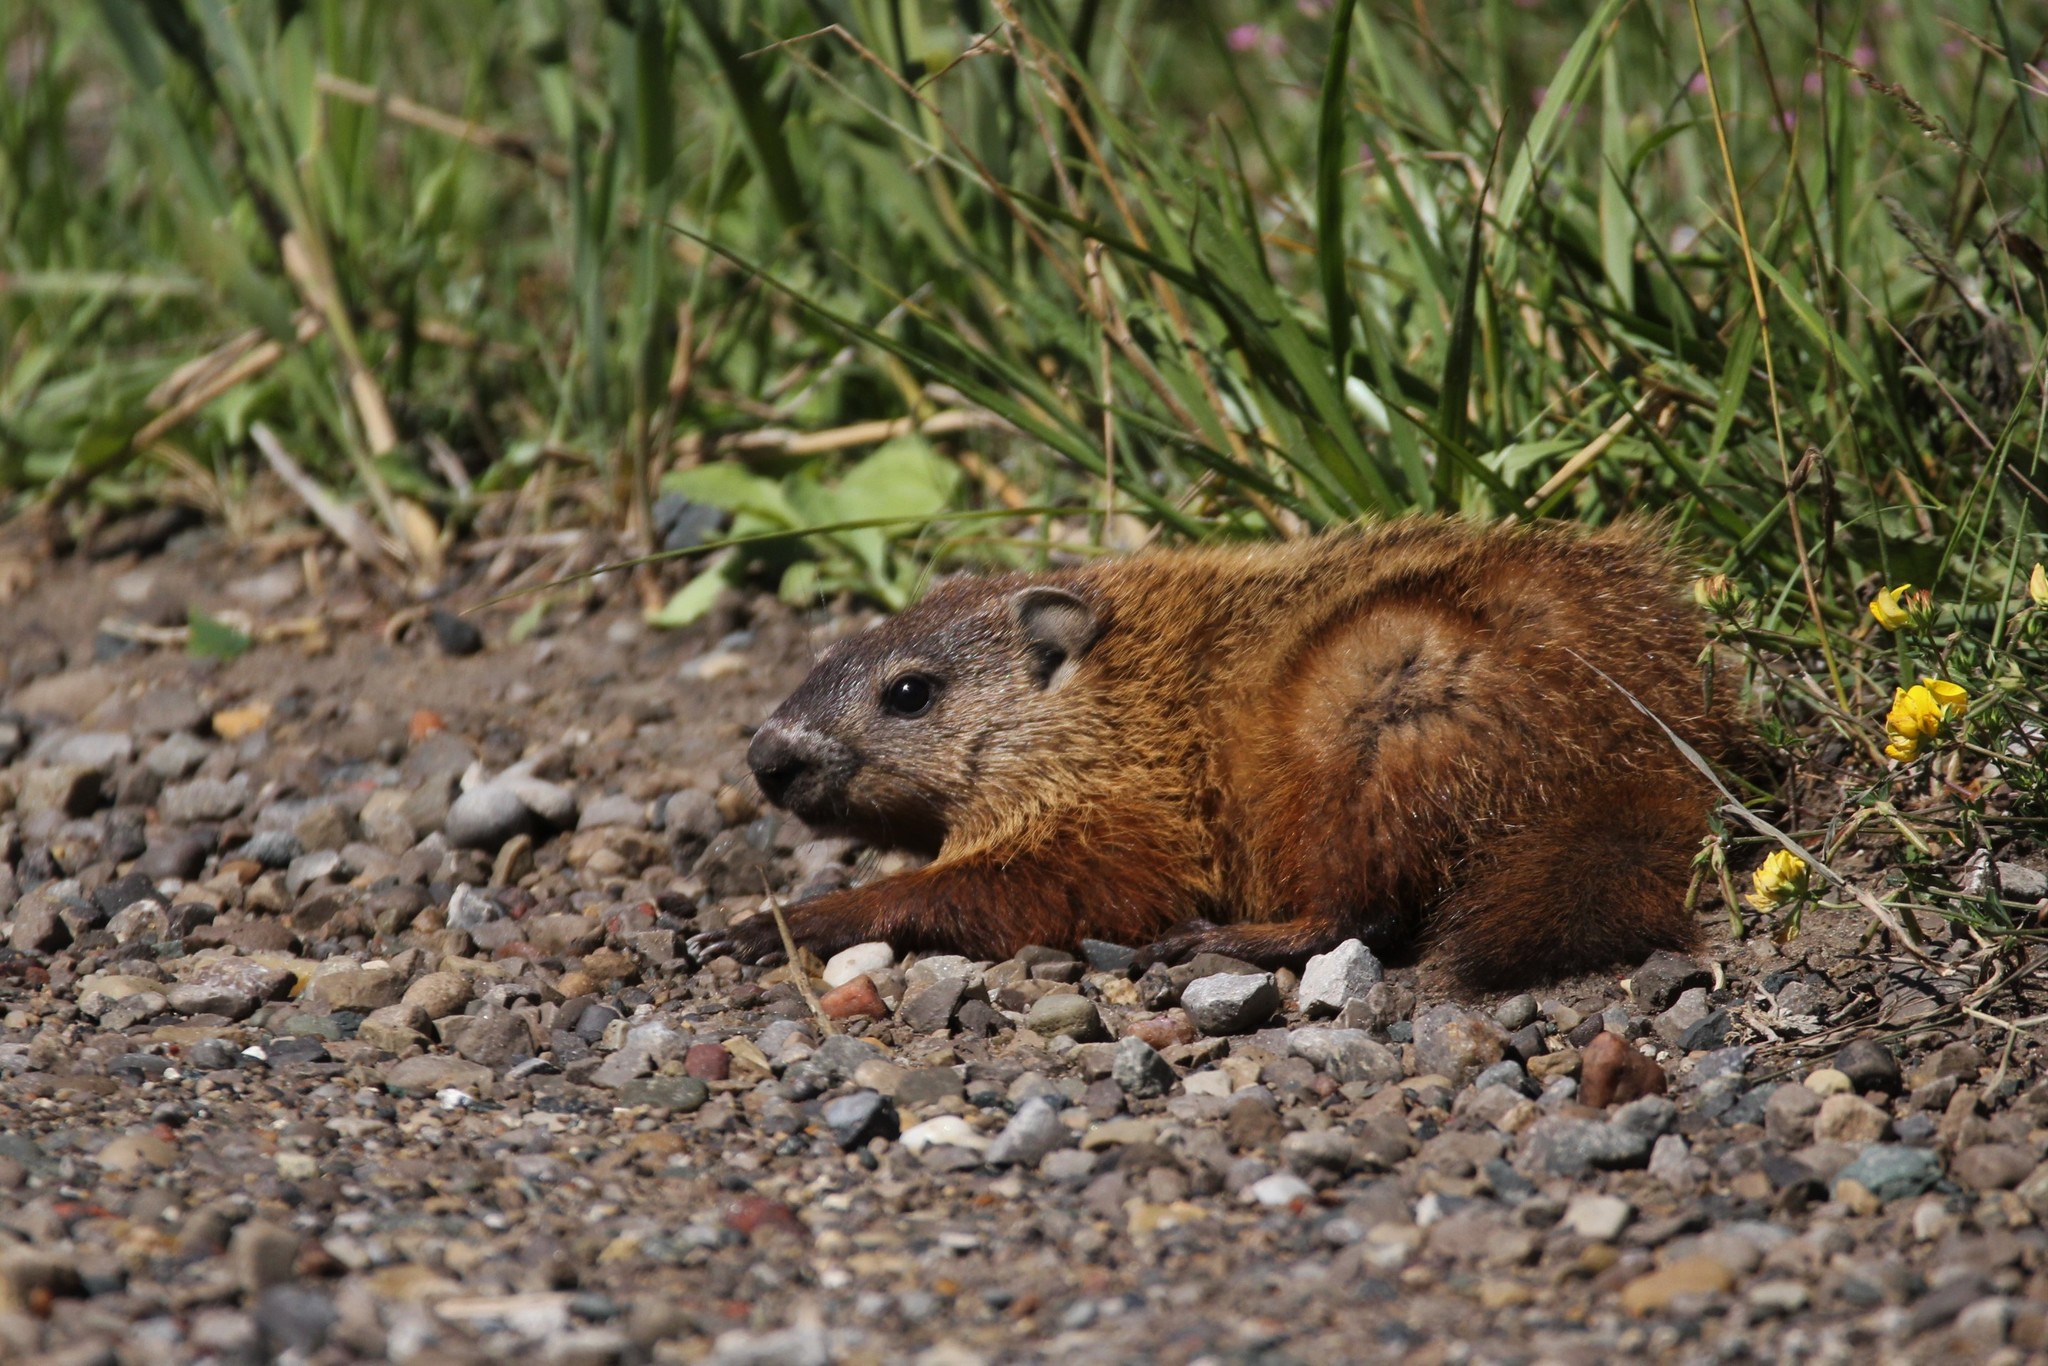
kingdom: Animalia
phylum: Chordata
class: Mammalia
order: Rodentia
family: Sciuridae
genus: Marmota
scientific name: Marmota monax
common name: Groundhog
